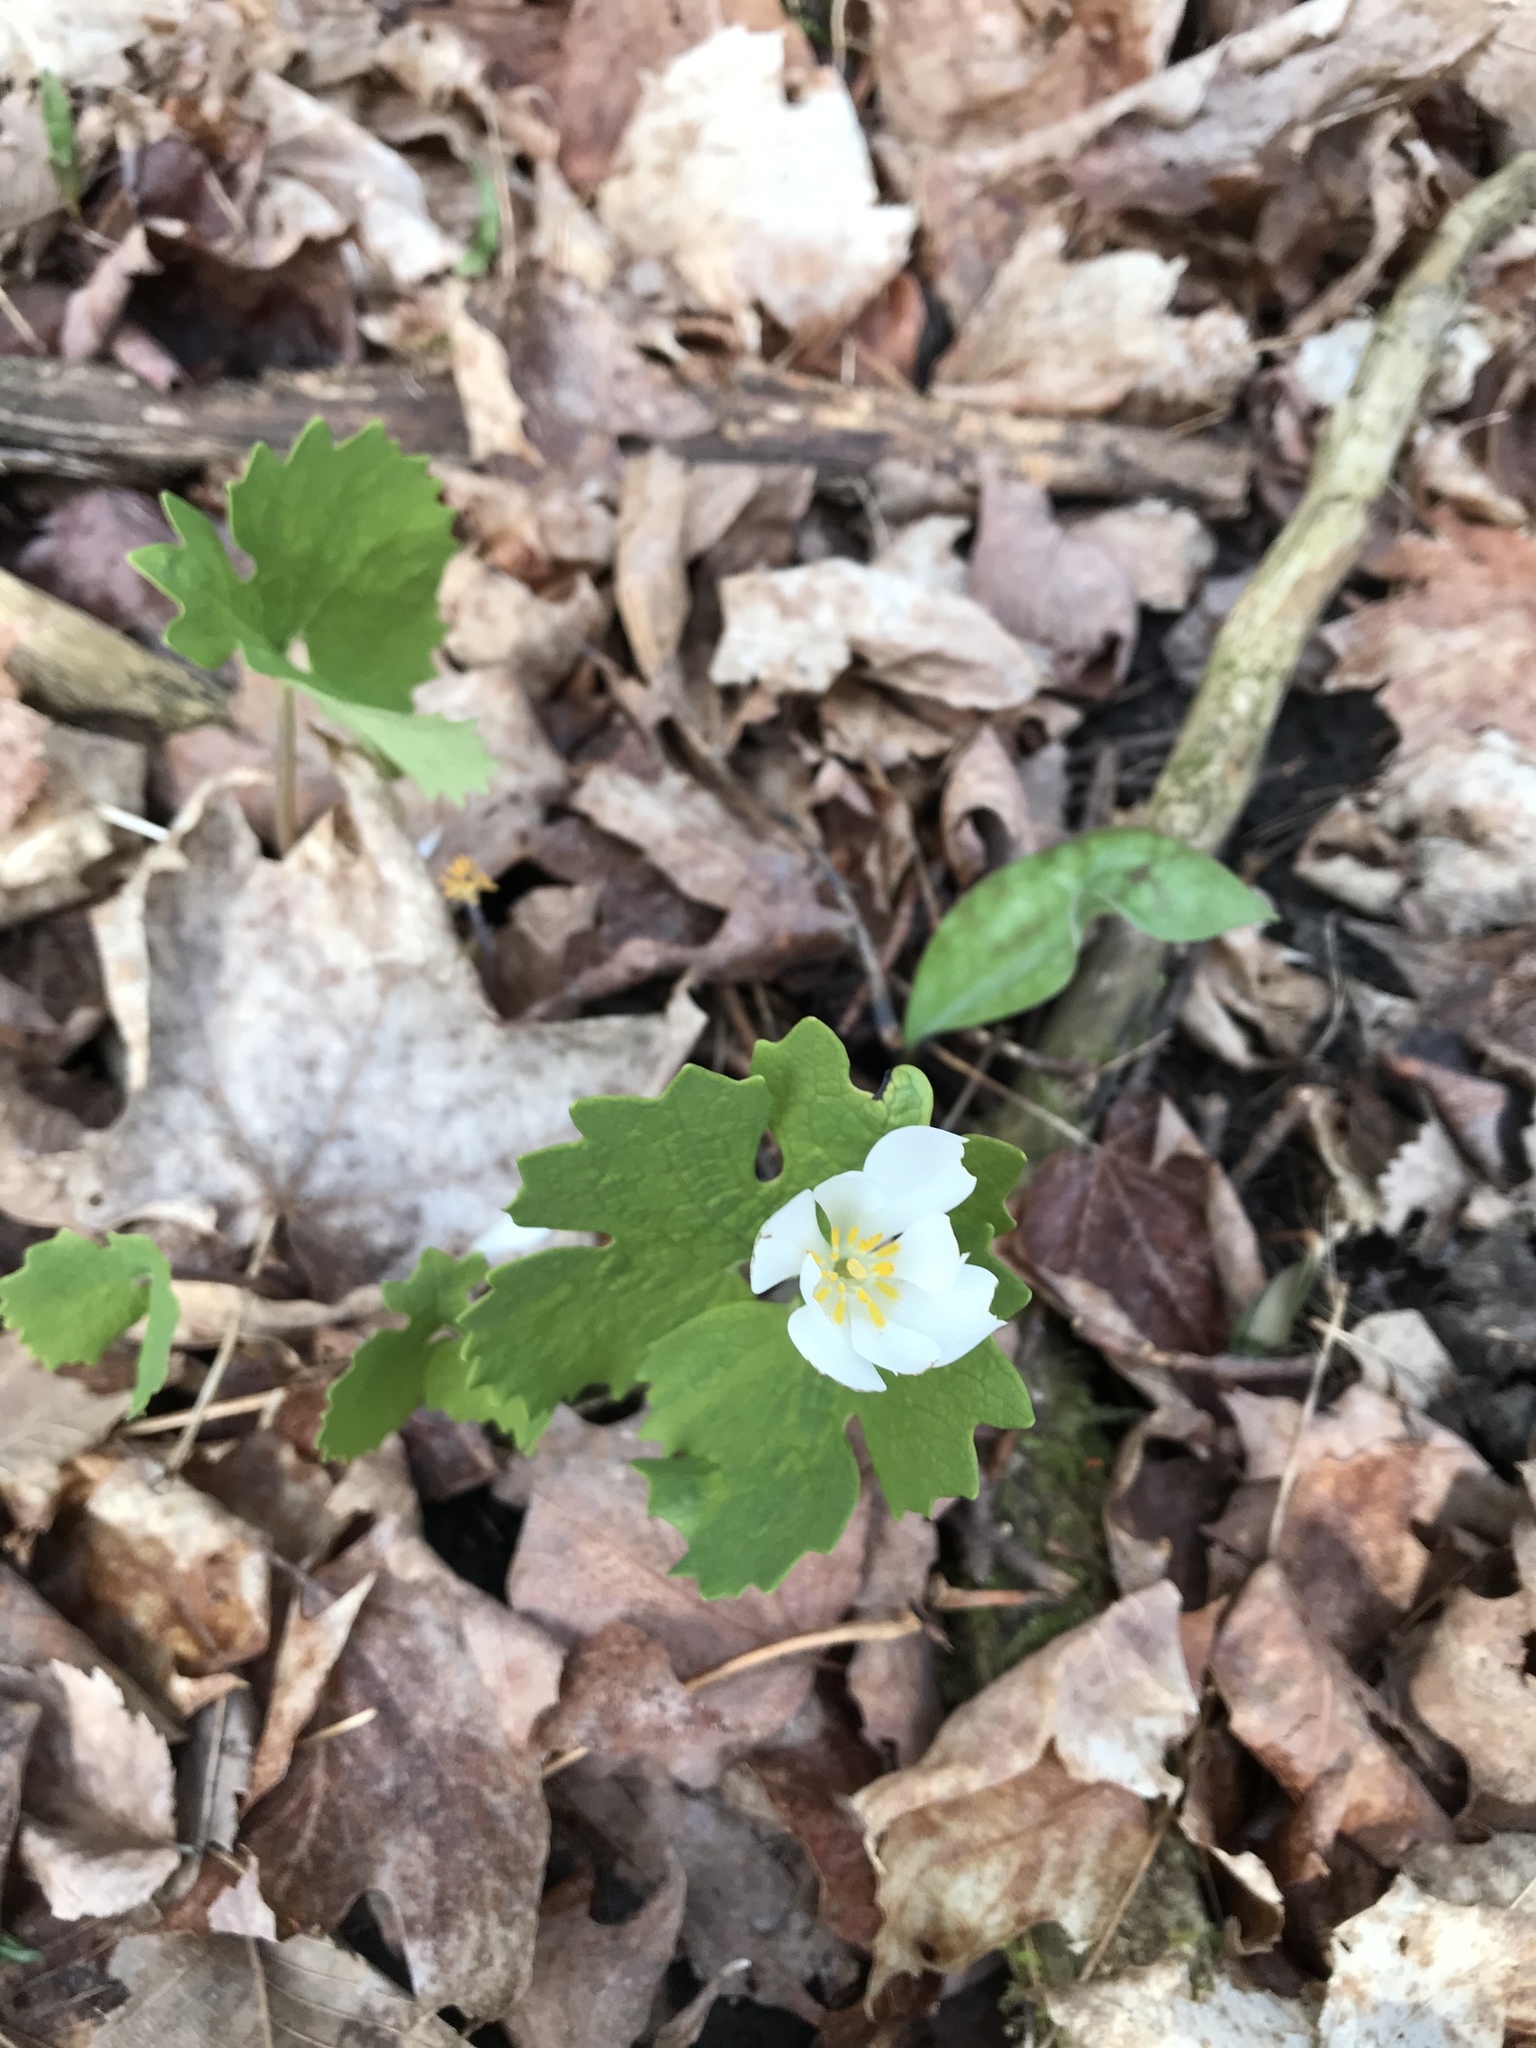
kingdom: Plantae
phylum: Tracheophyta
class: Magnoliopsida
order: Ranunculales
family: Papaveraceae
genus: Sanguinaria
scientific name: Sanguinaria canadensis
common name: Bloodroot
